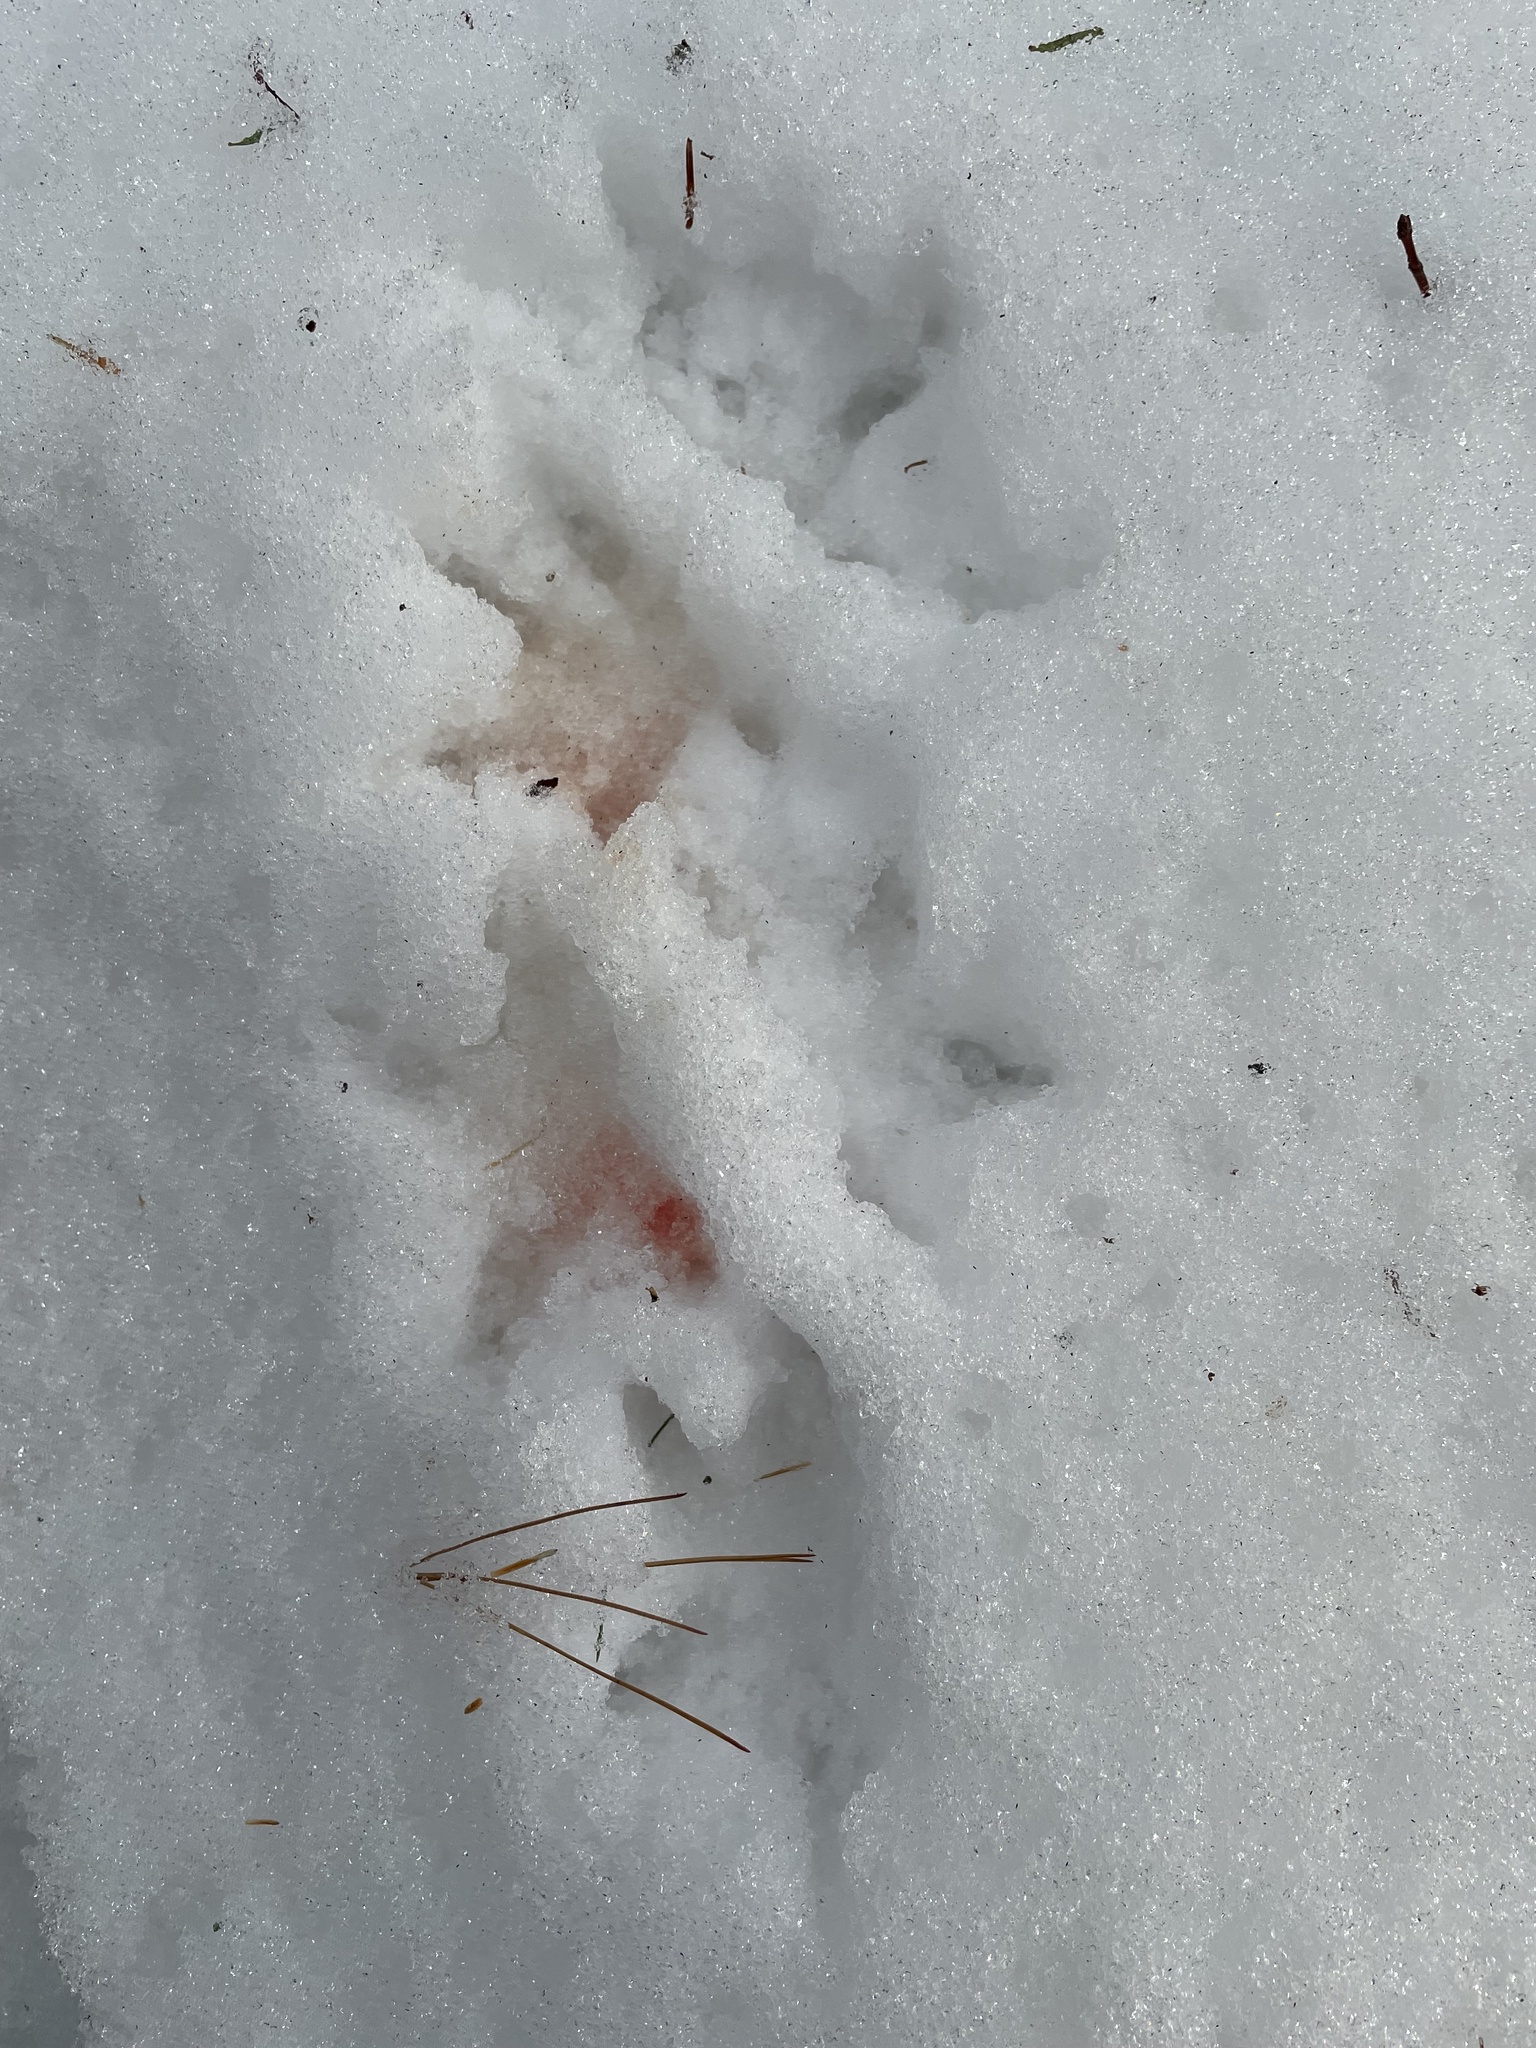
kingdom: Animalia
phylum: Chordata
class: Aves
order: Galliformes
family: Phasianidae
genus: Bonasa
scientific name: Bonasa umbellus
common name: Ruffed grouse
